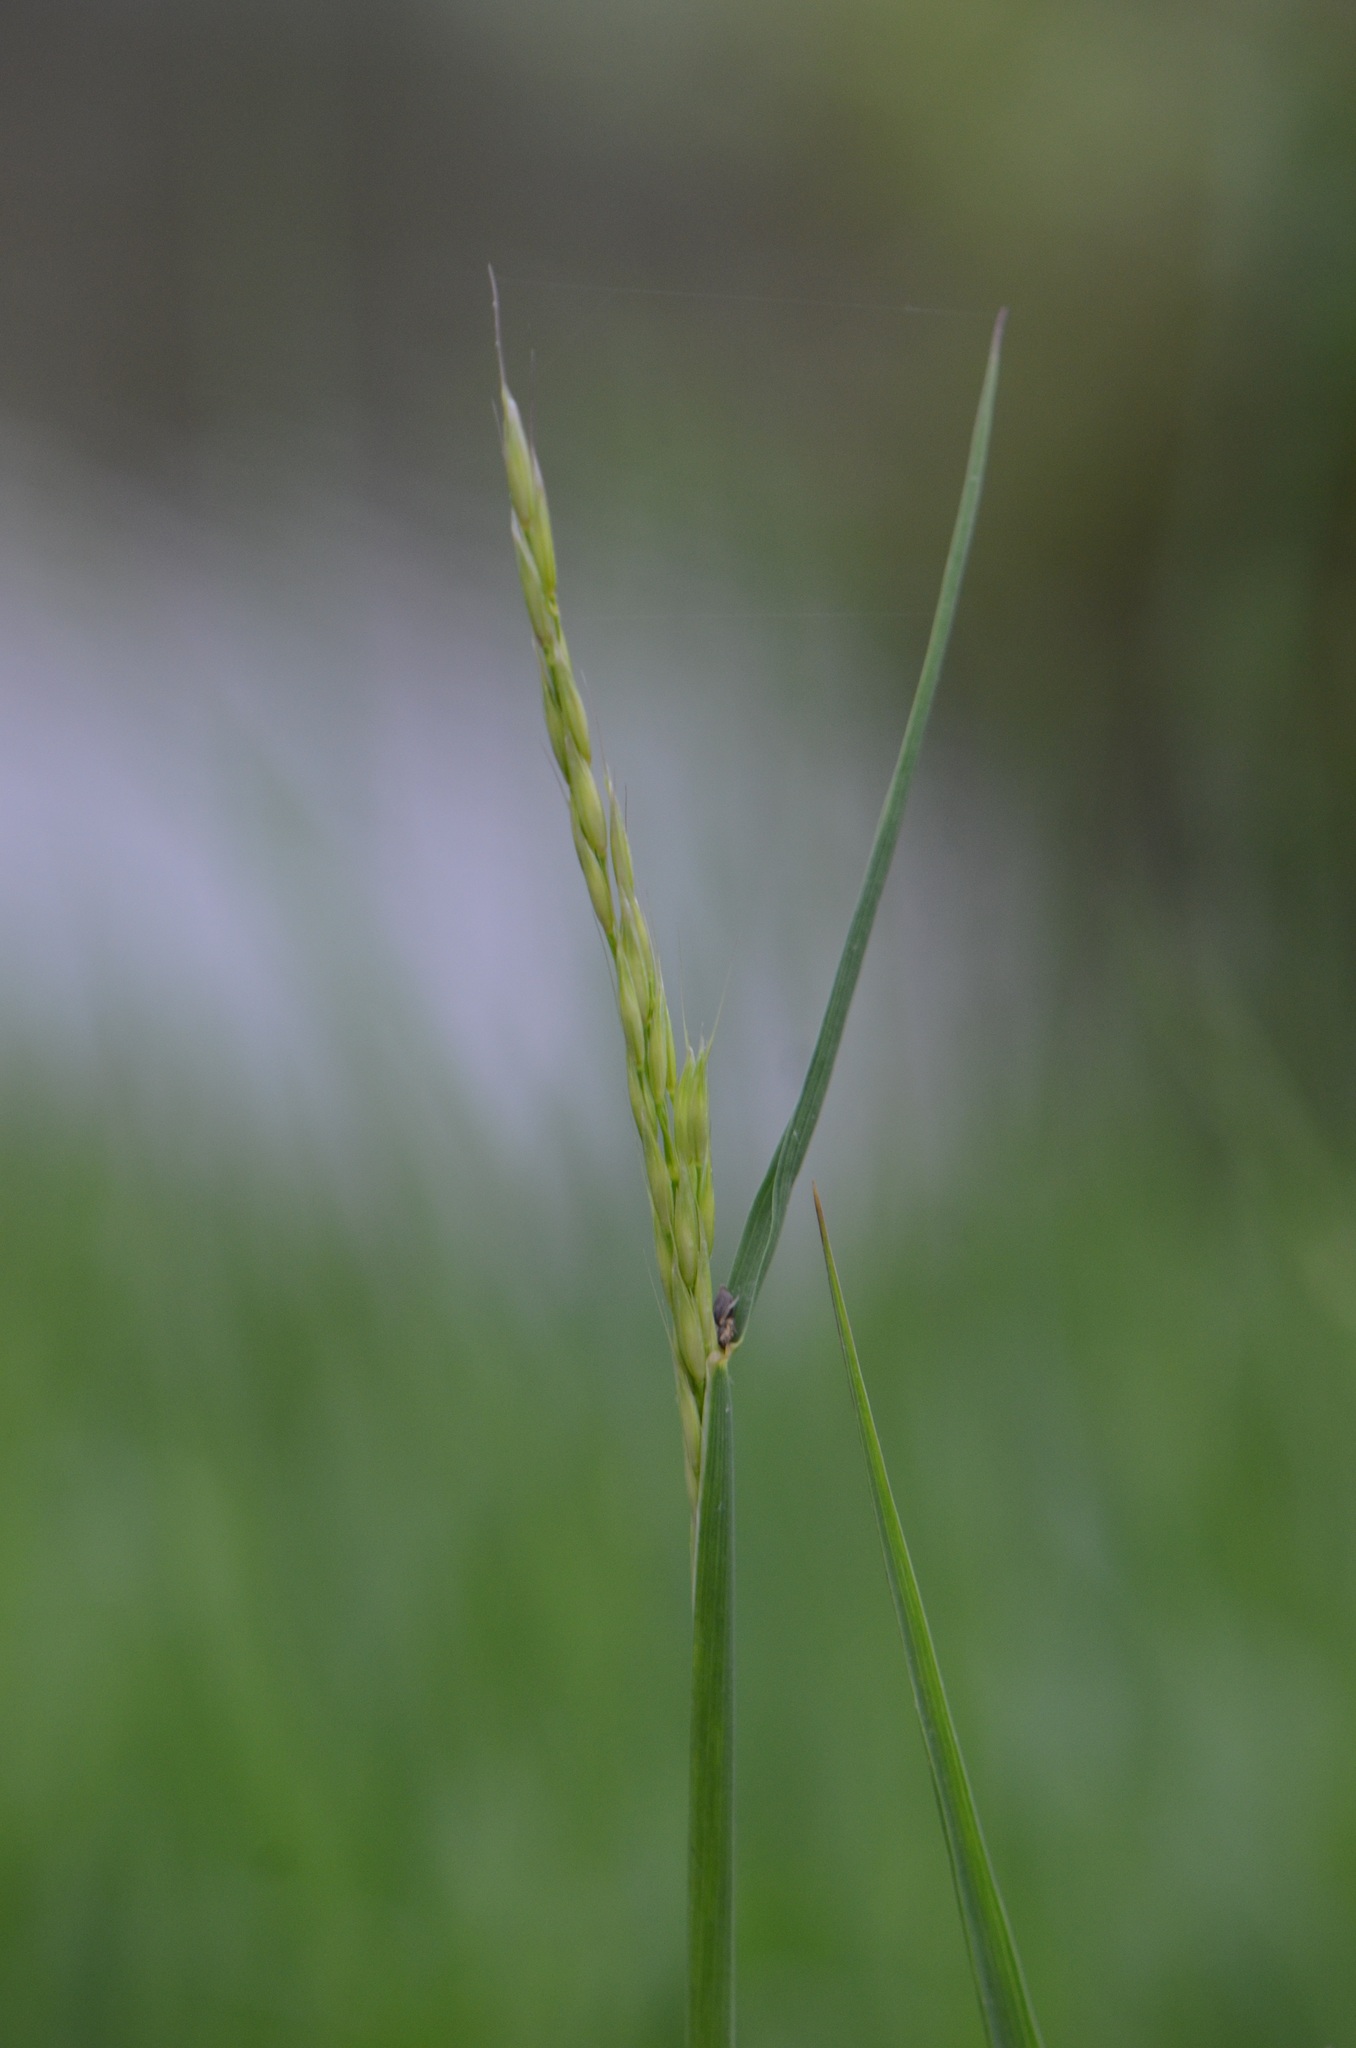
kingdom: Plantae
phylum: Tracheophyta
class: Liliopsida
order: Poales
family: Poaceae
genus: Arrhenatherum
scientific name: Arrhenatherum elatius
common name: Tall oatgrass
